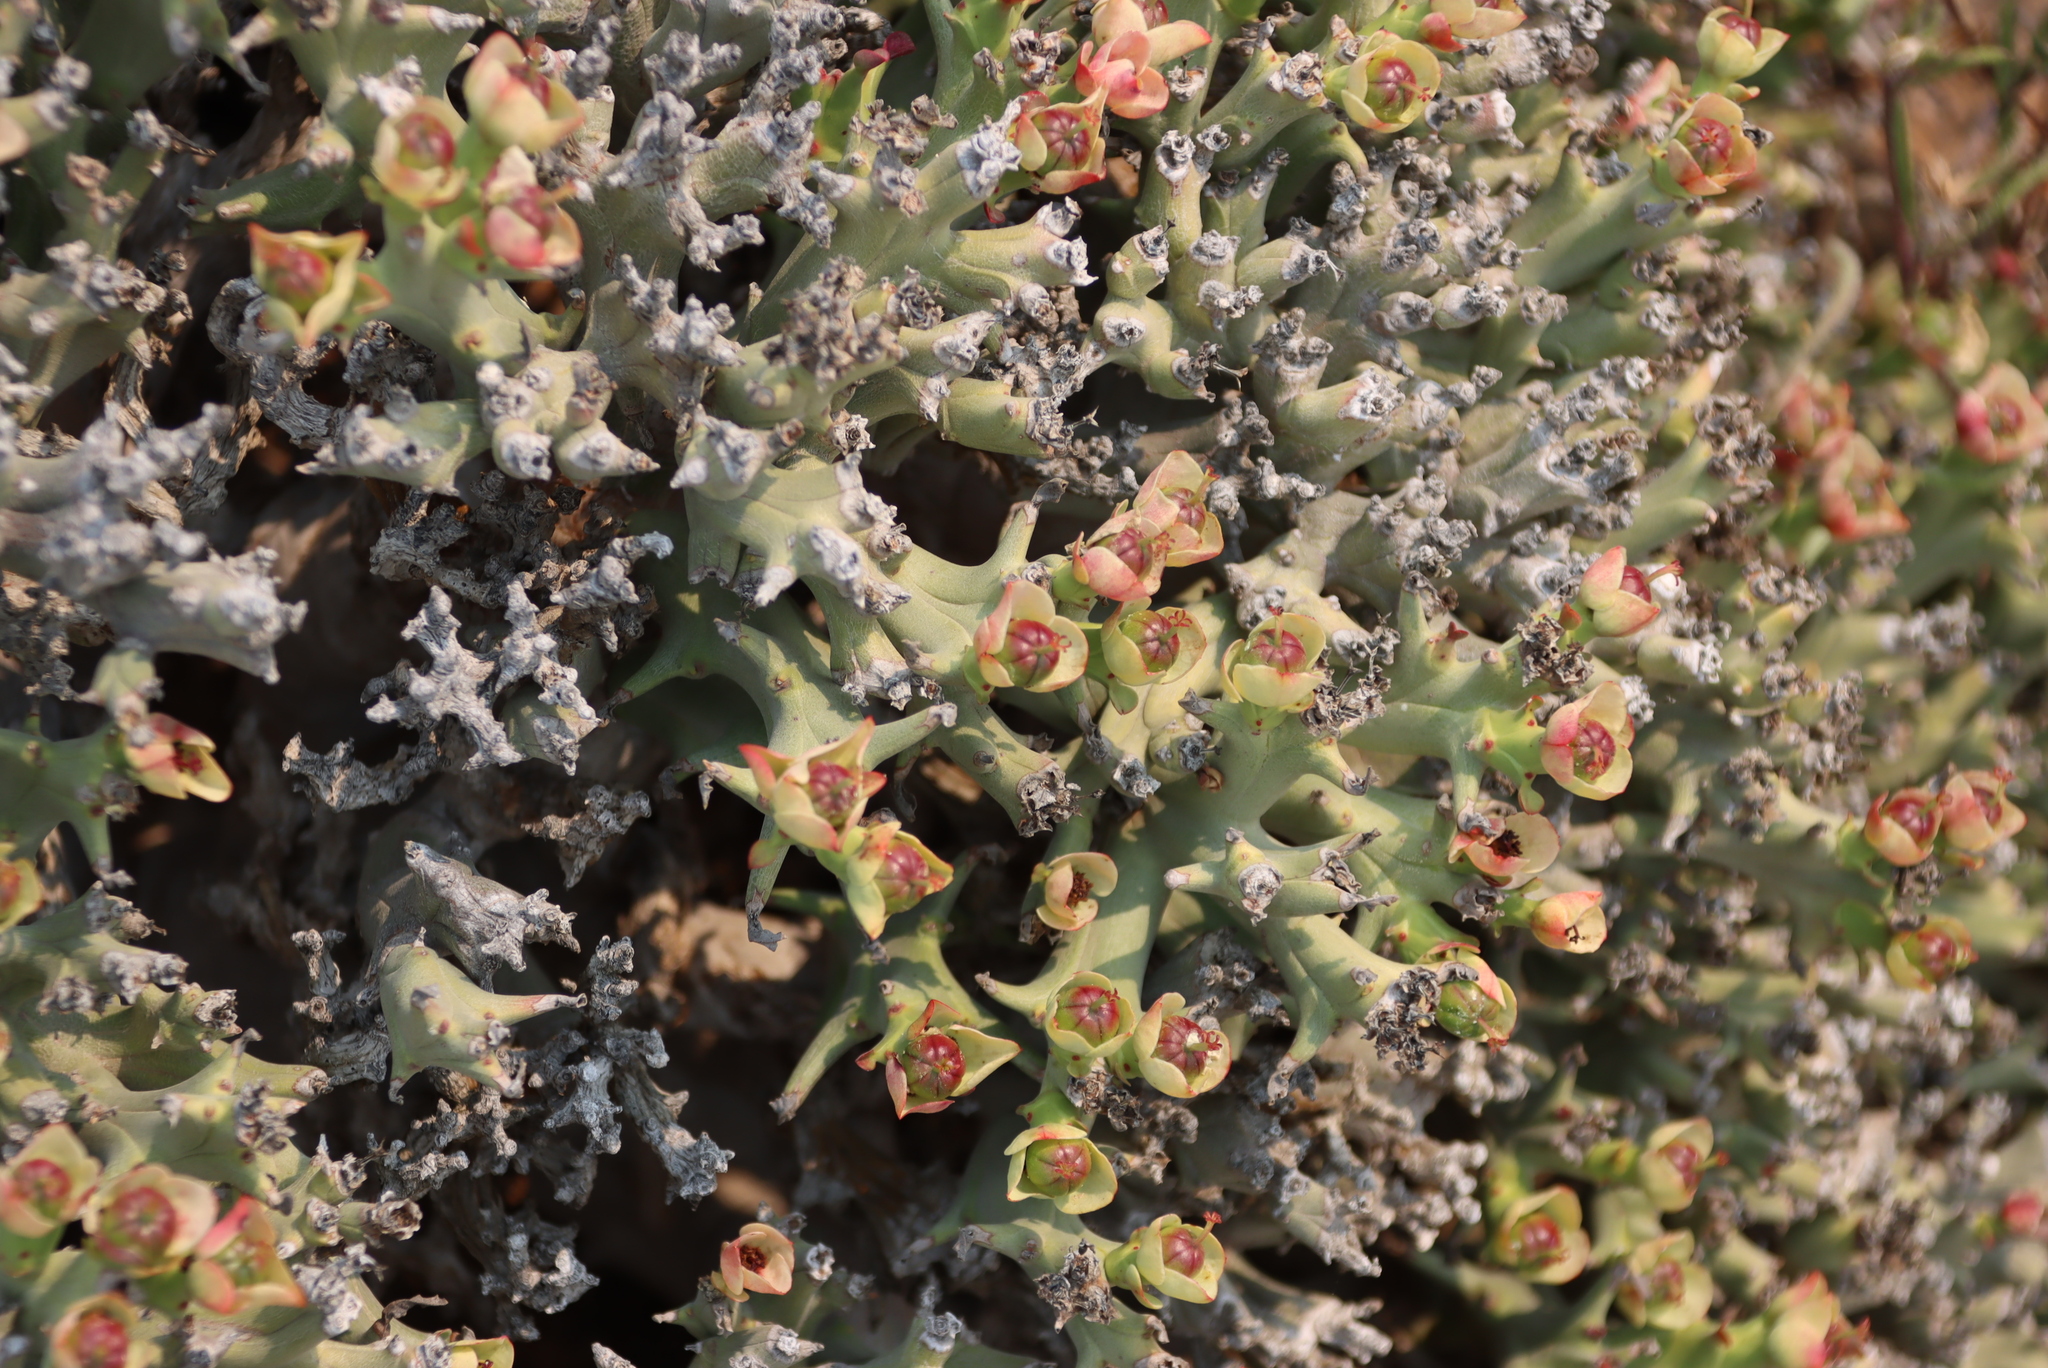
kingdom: Plantae
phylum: Tracheophyta
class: Magnoliopsida
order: Malpighiales
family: Euphorbiaceae
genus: Euphorbia
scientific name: Euphorbia hamata
